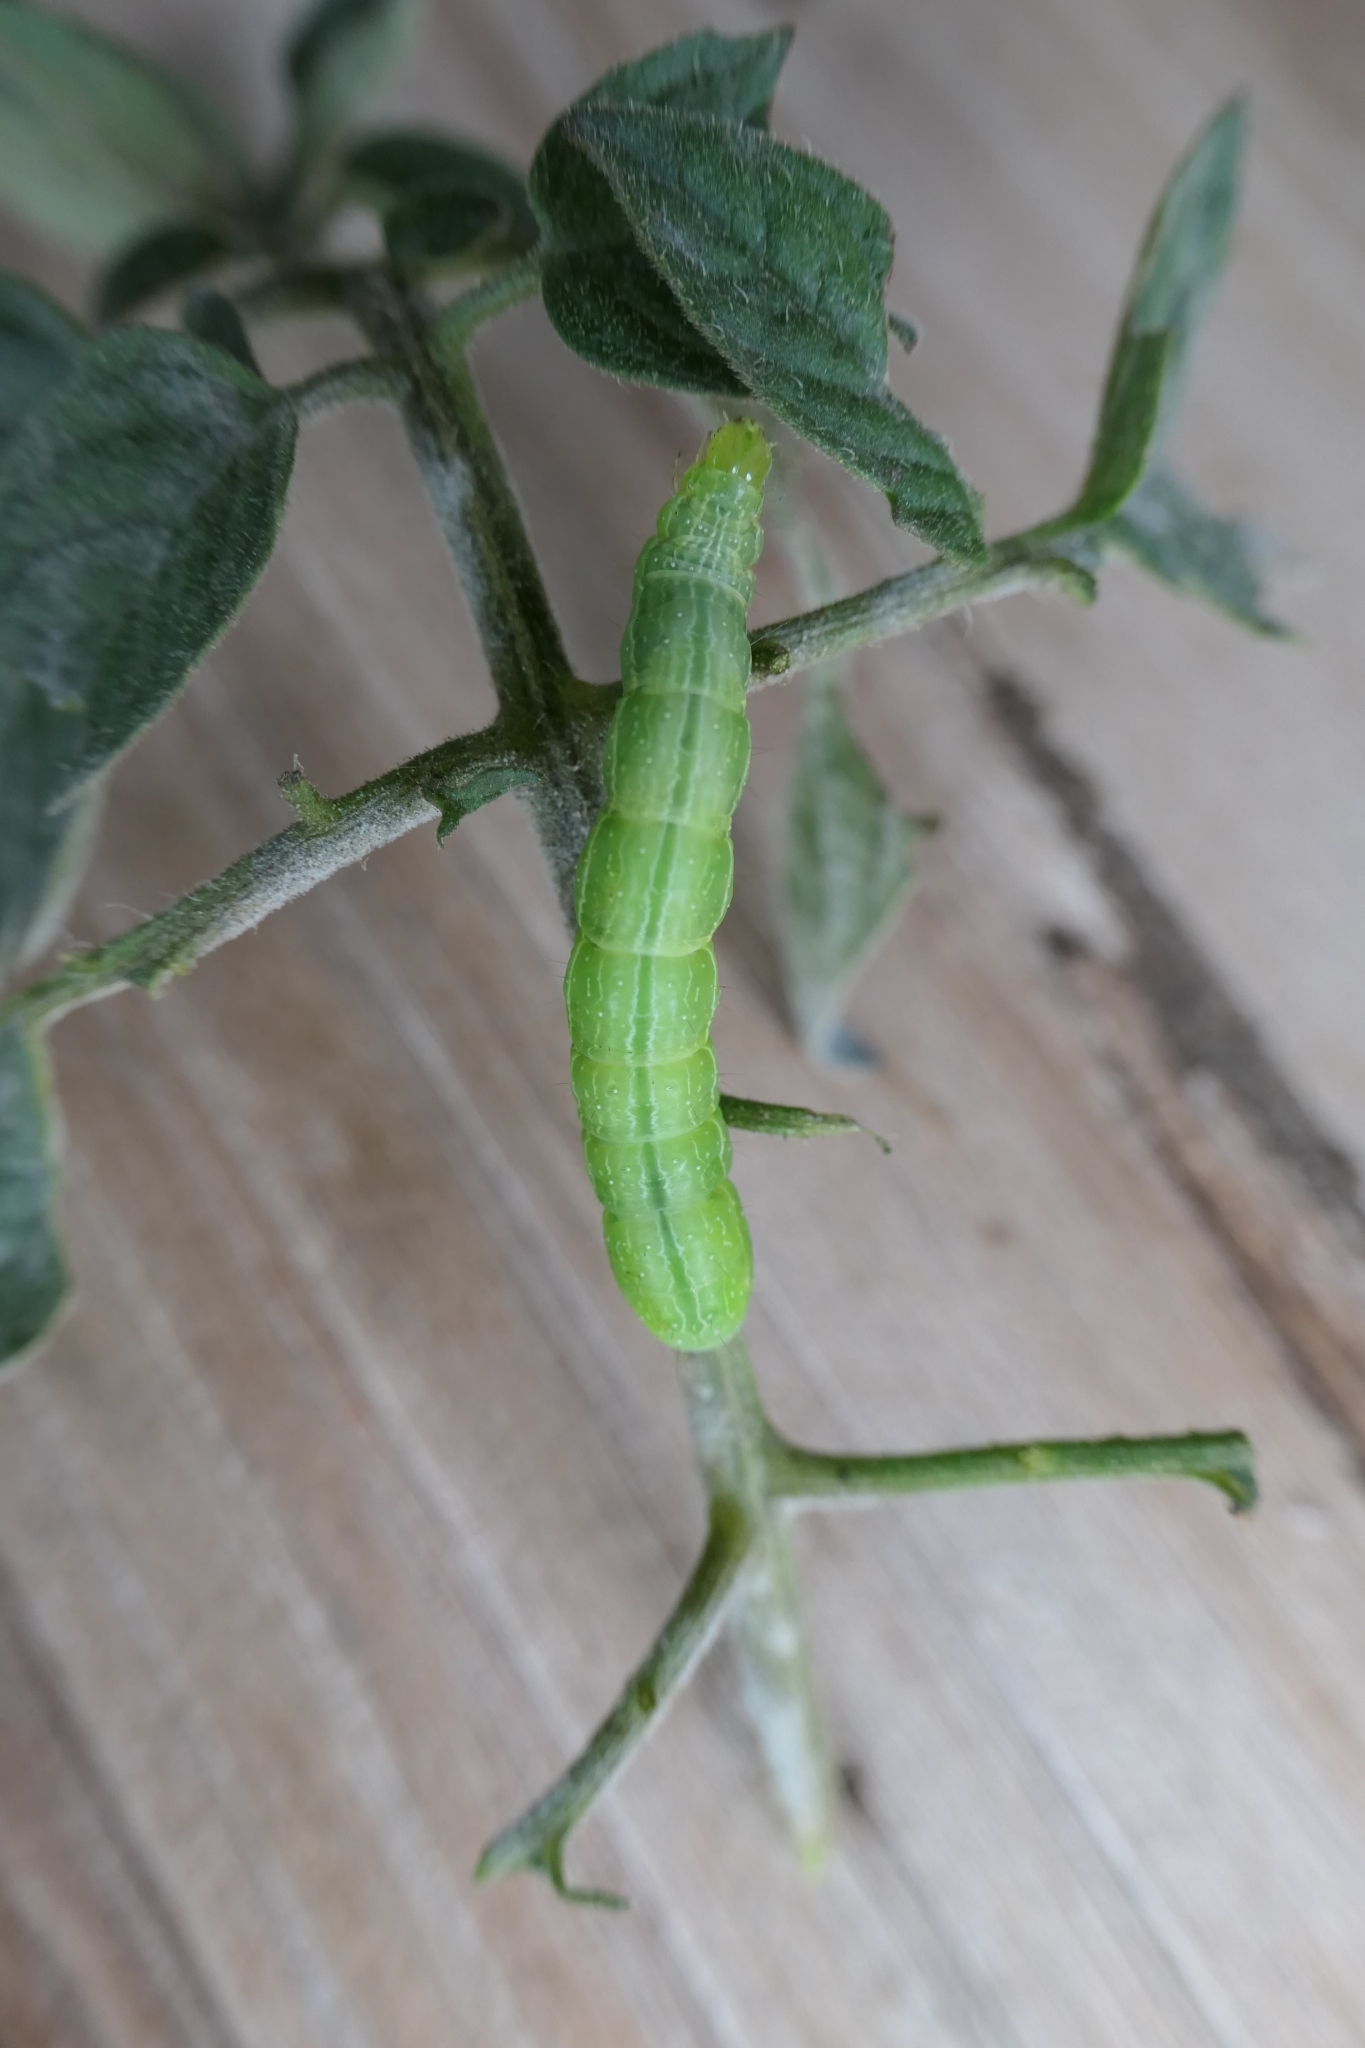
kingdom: Animalia
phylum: Arthropoda
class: Insecta
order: Lepidoptera
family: Noctuidae
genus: Chrysodeixis
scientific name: Chrysodeixis eriosoma
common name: Green garden looper
